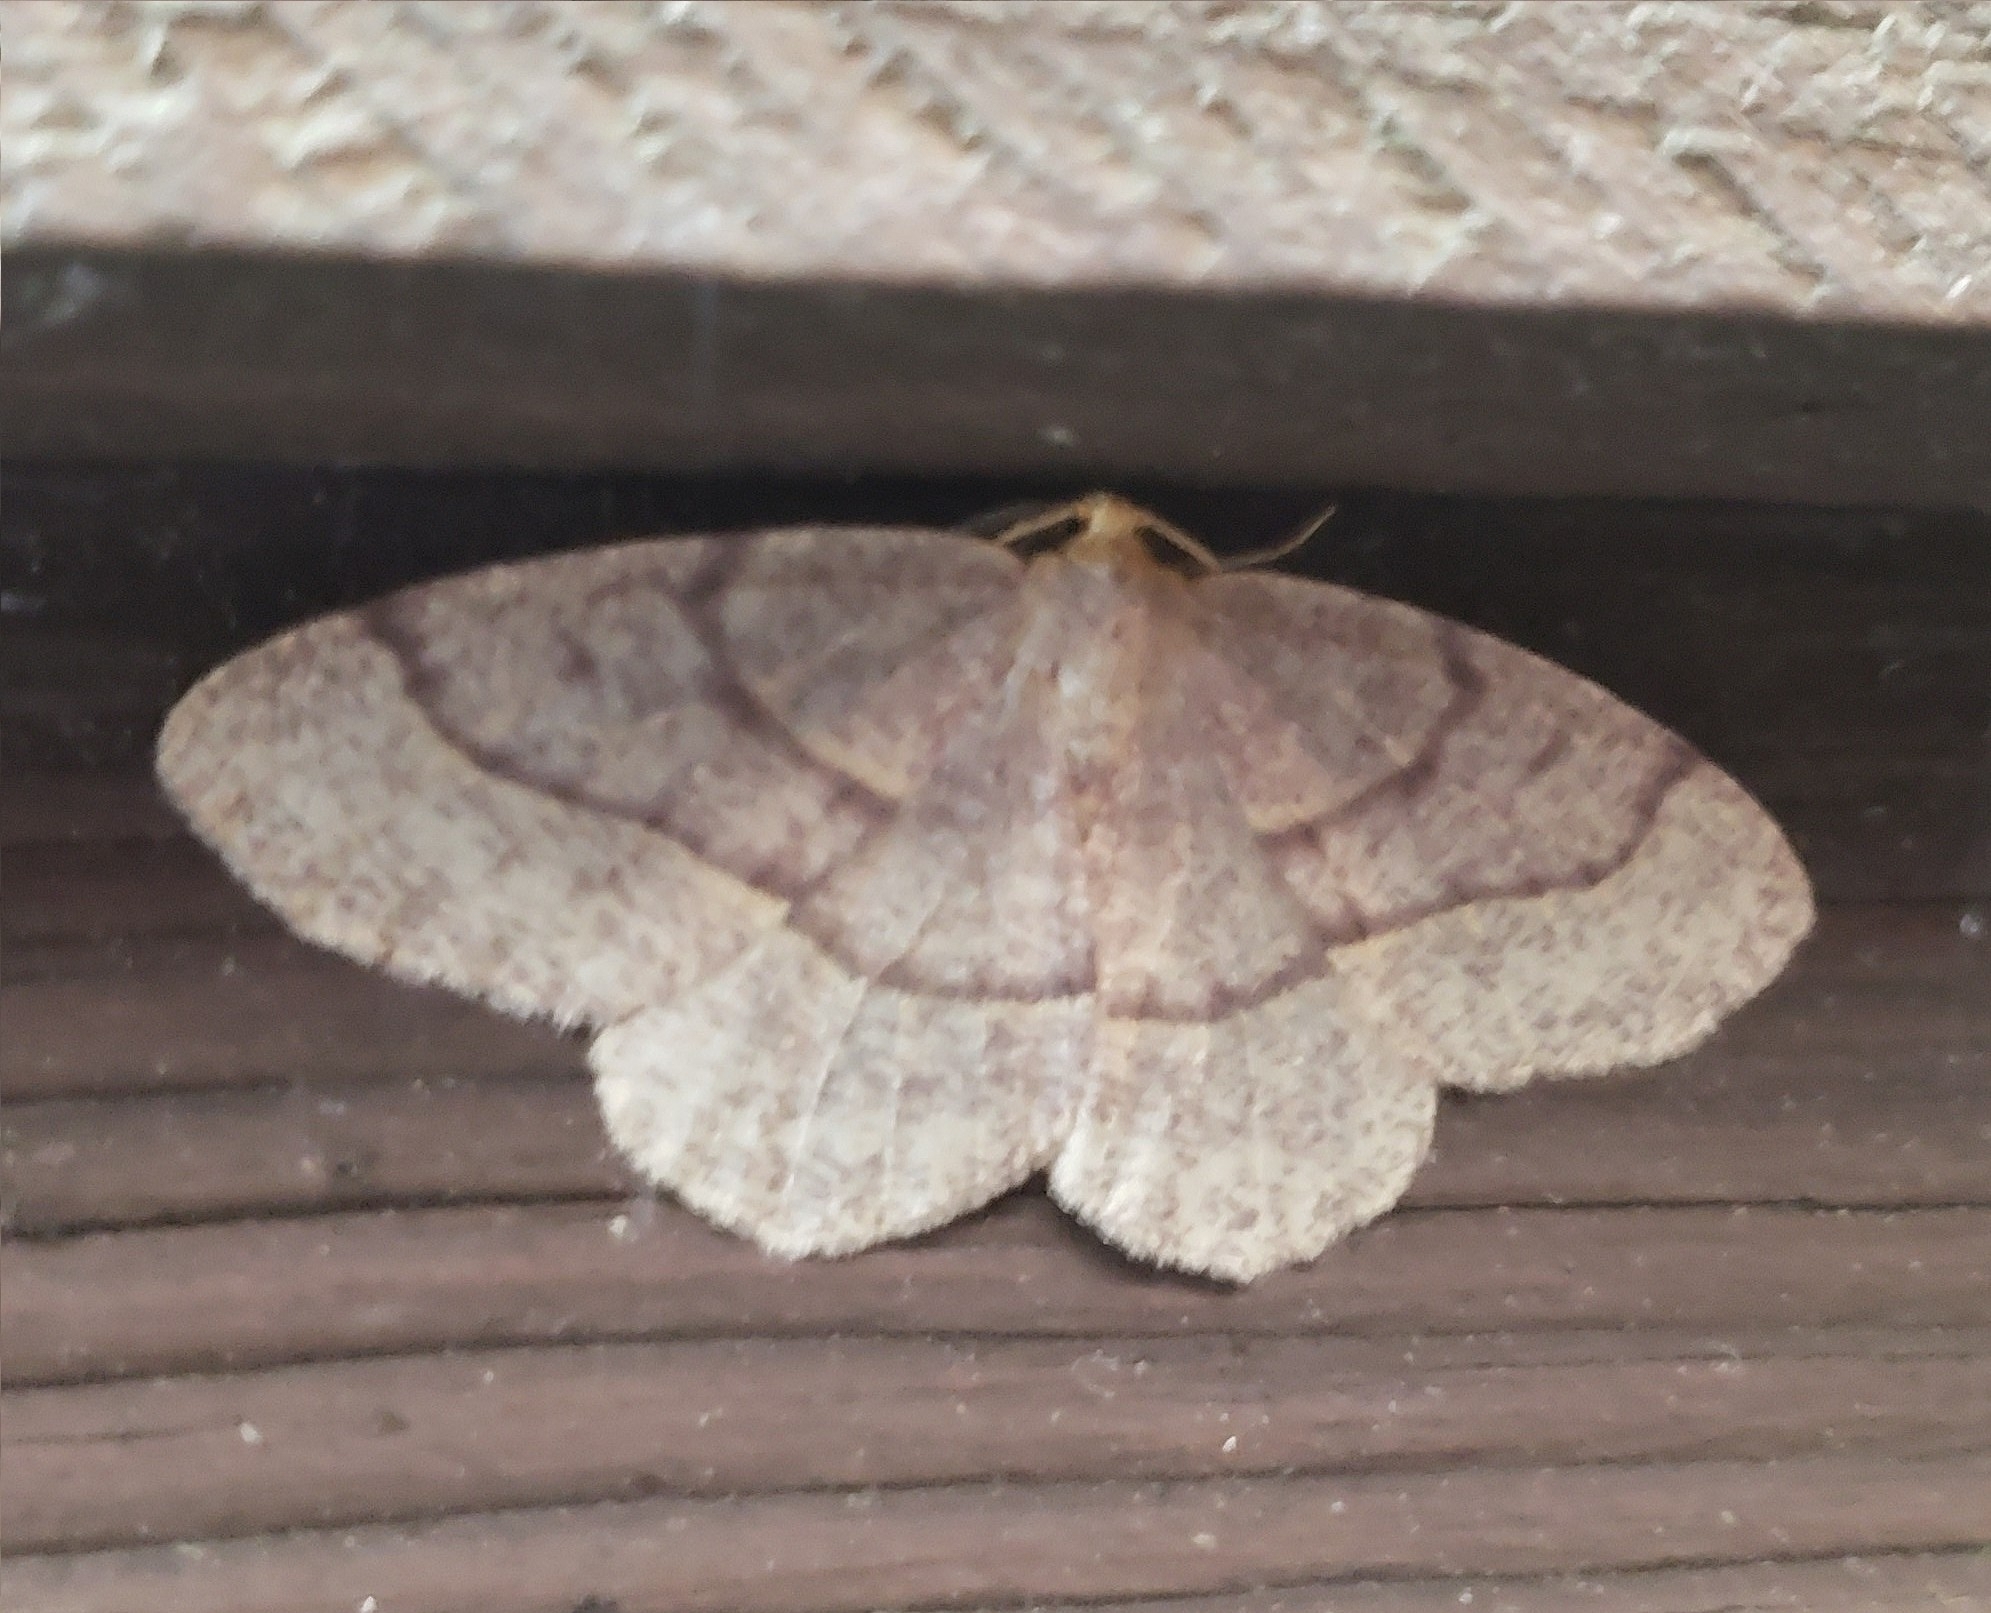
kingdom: Animalia
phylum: Arthropoda
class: Insecta
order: Lepidoptera
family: Geometridae
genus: Lambdina
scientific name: Lambdina fervidaria
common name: Curve-lined looper moth
